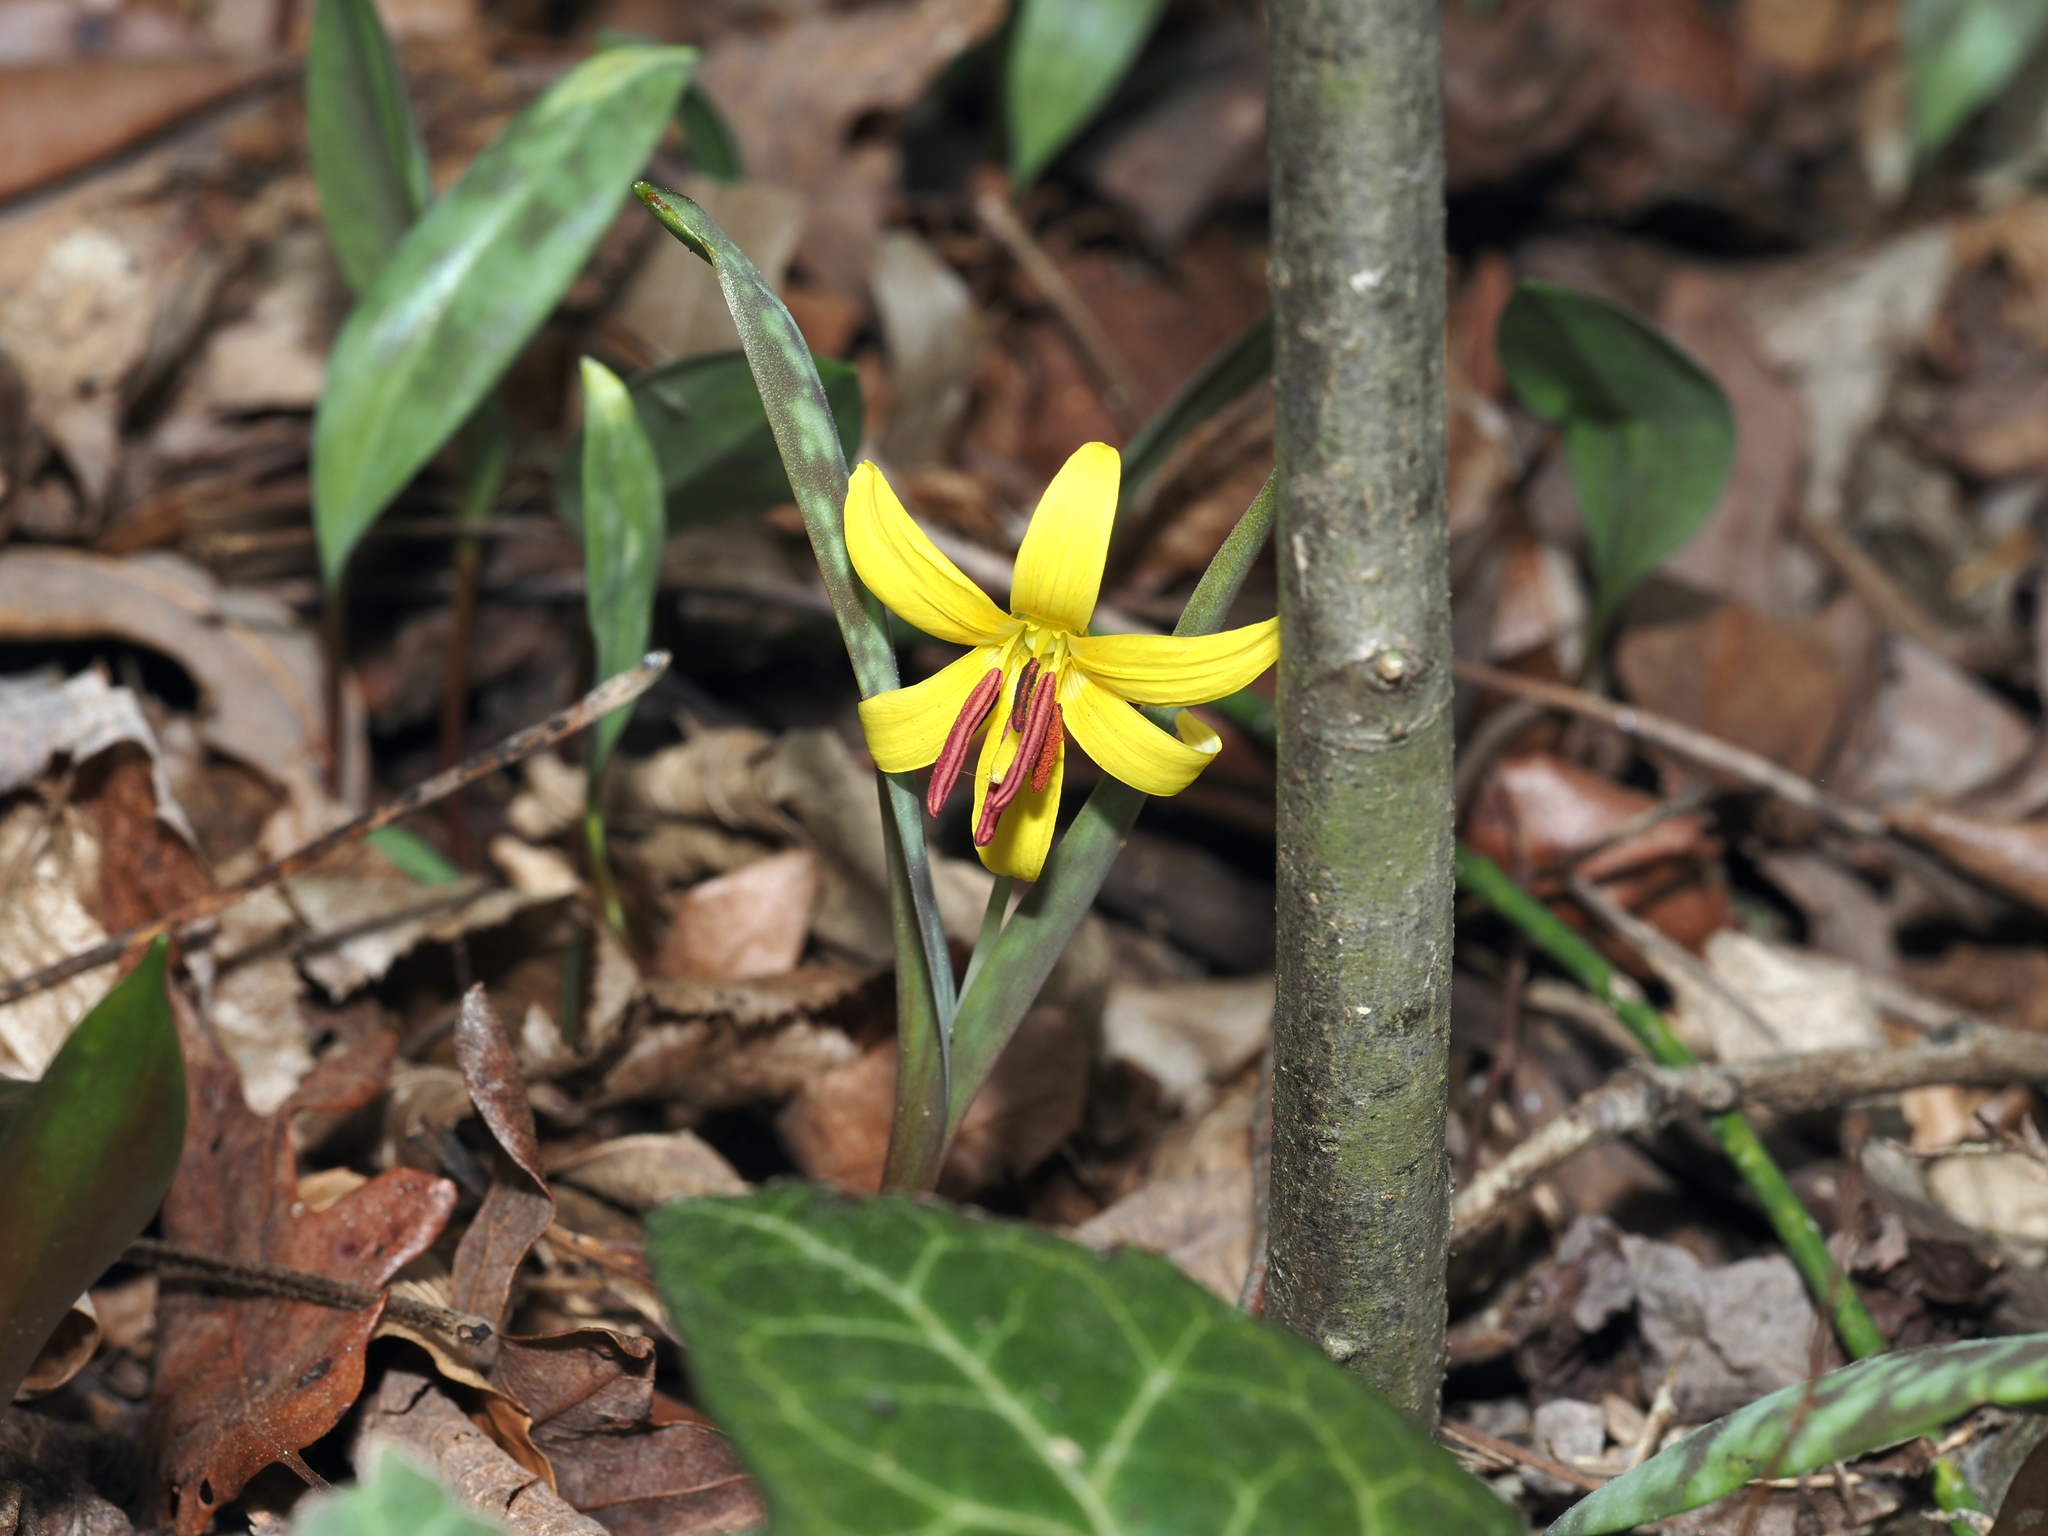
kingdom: Plantae
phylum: Tracheophyta
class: Liliopsida
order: Liliales
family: Liliaceae
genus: Erythronium
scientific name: Erythronium americanum
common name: Yellow adder's-tongue
